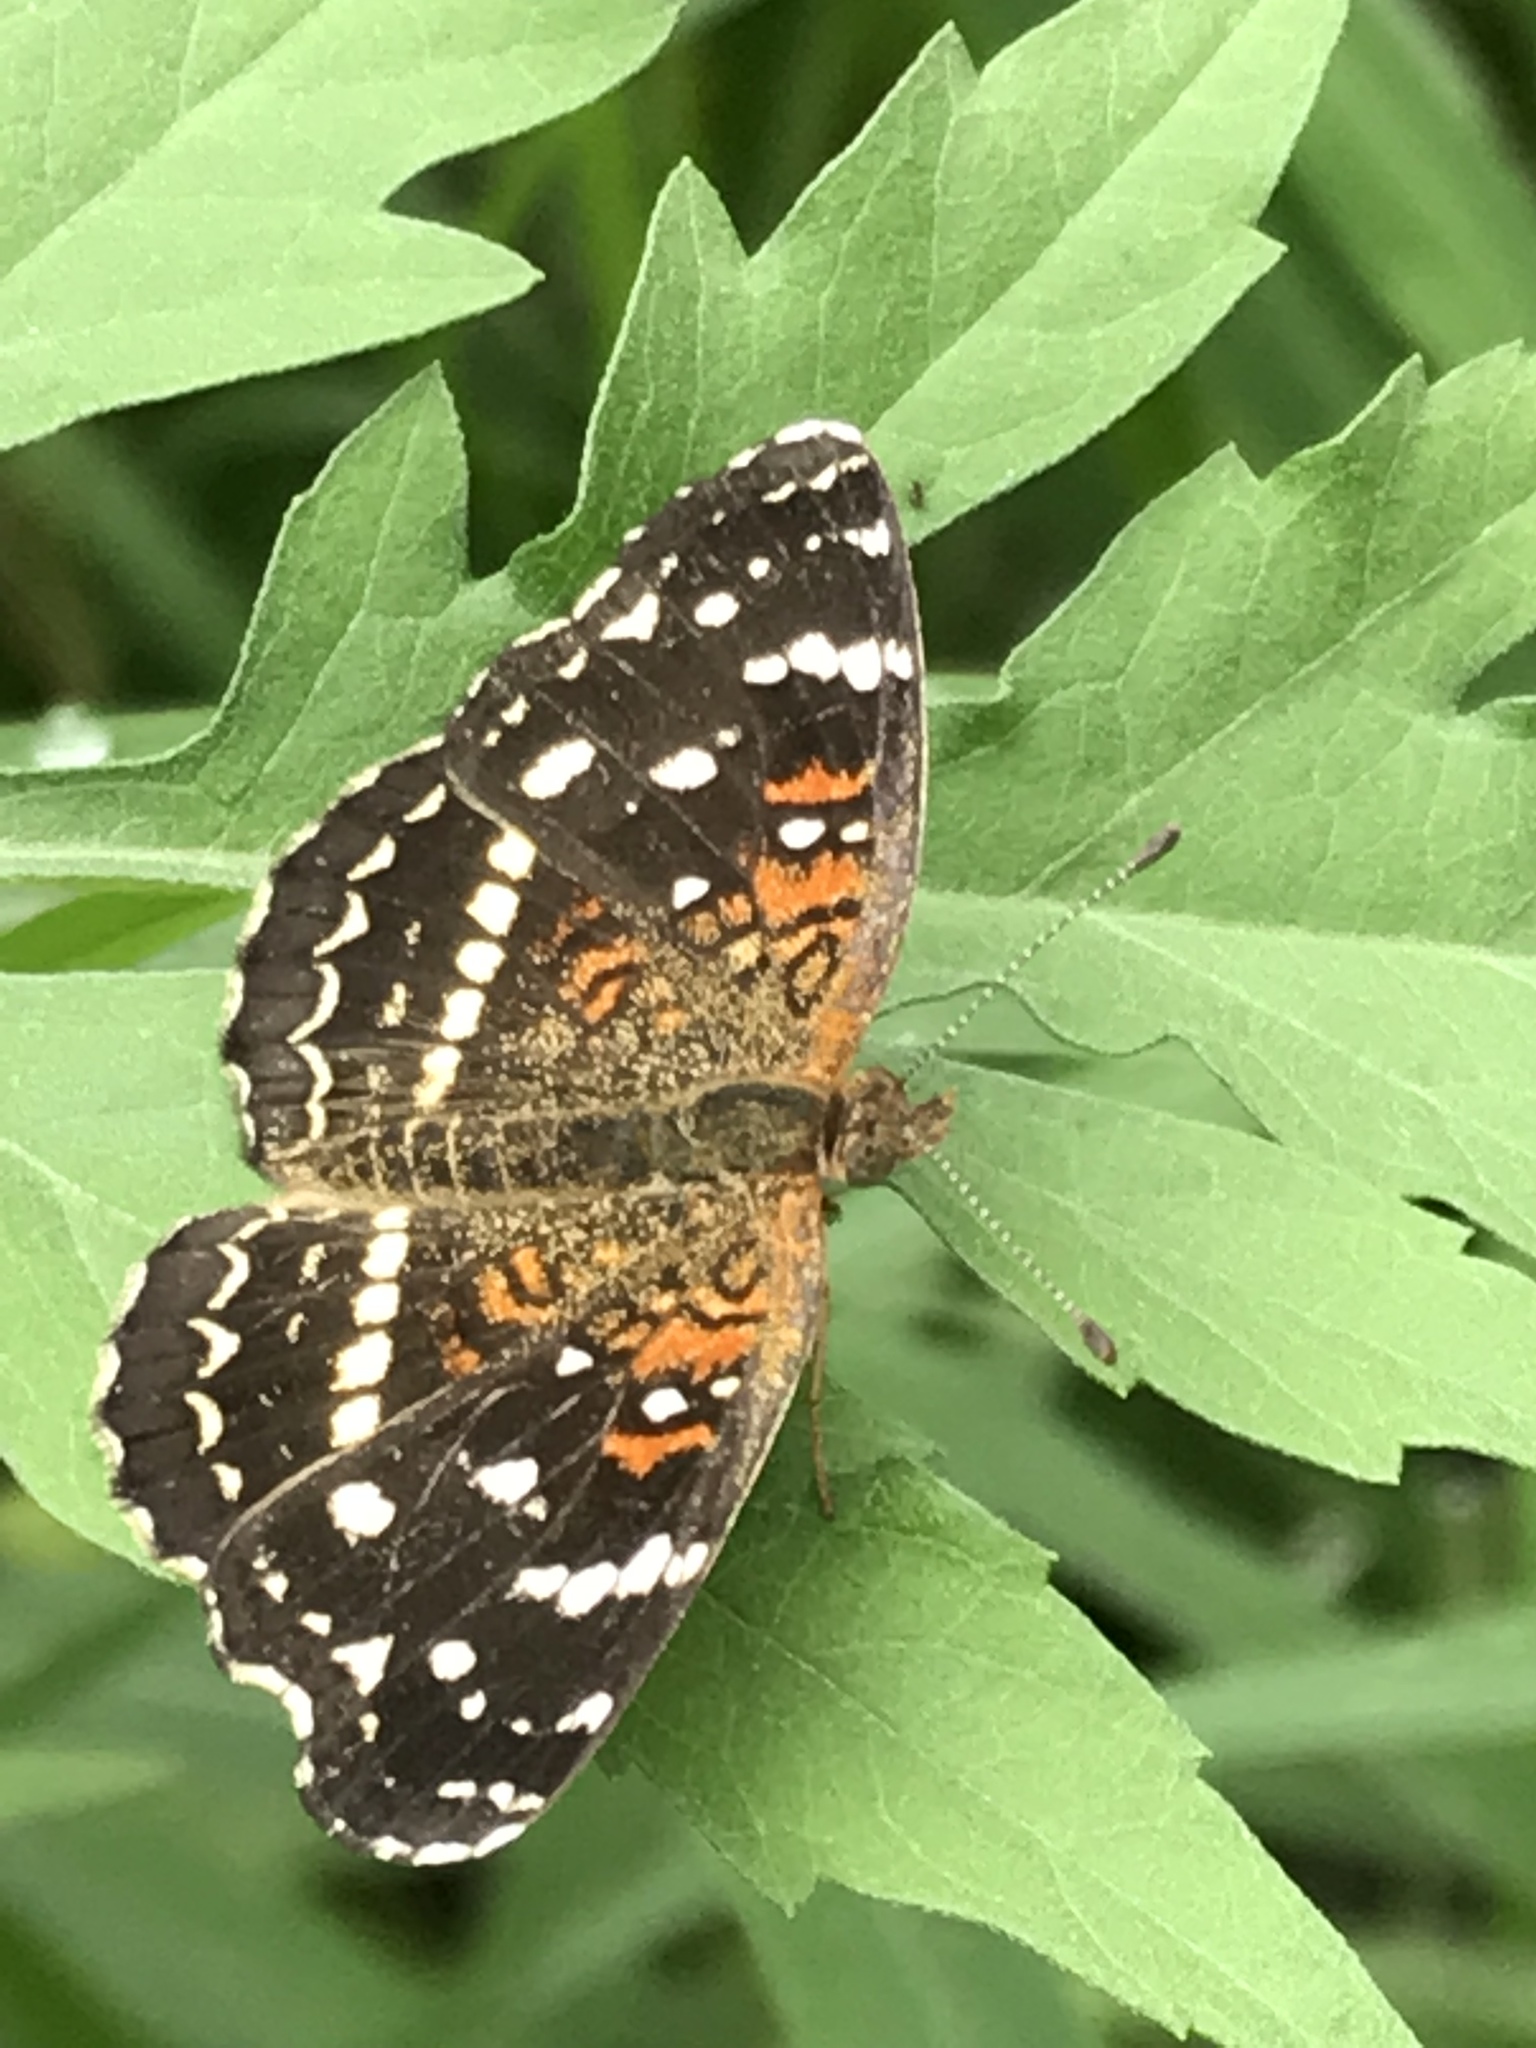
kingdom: Animalia
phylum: Arthropoda
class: Insecta
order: Lepidoptera
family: Nymphalidae
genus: Anthanassa
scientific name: Anthanassa texana
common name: Texan crescent
